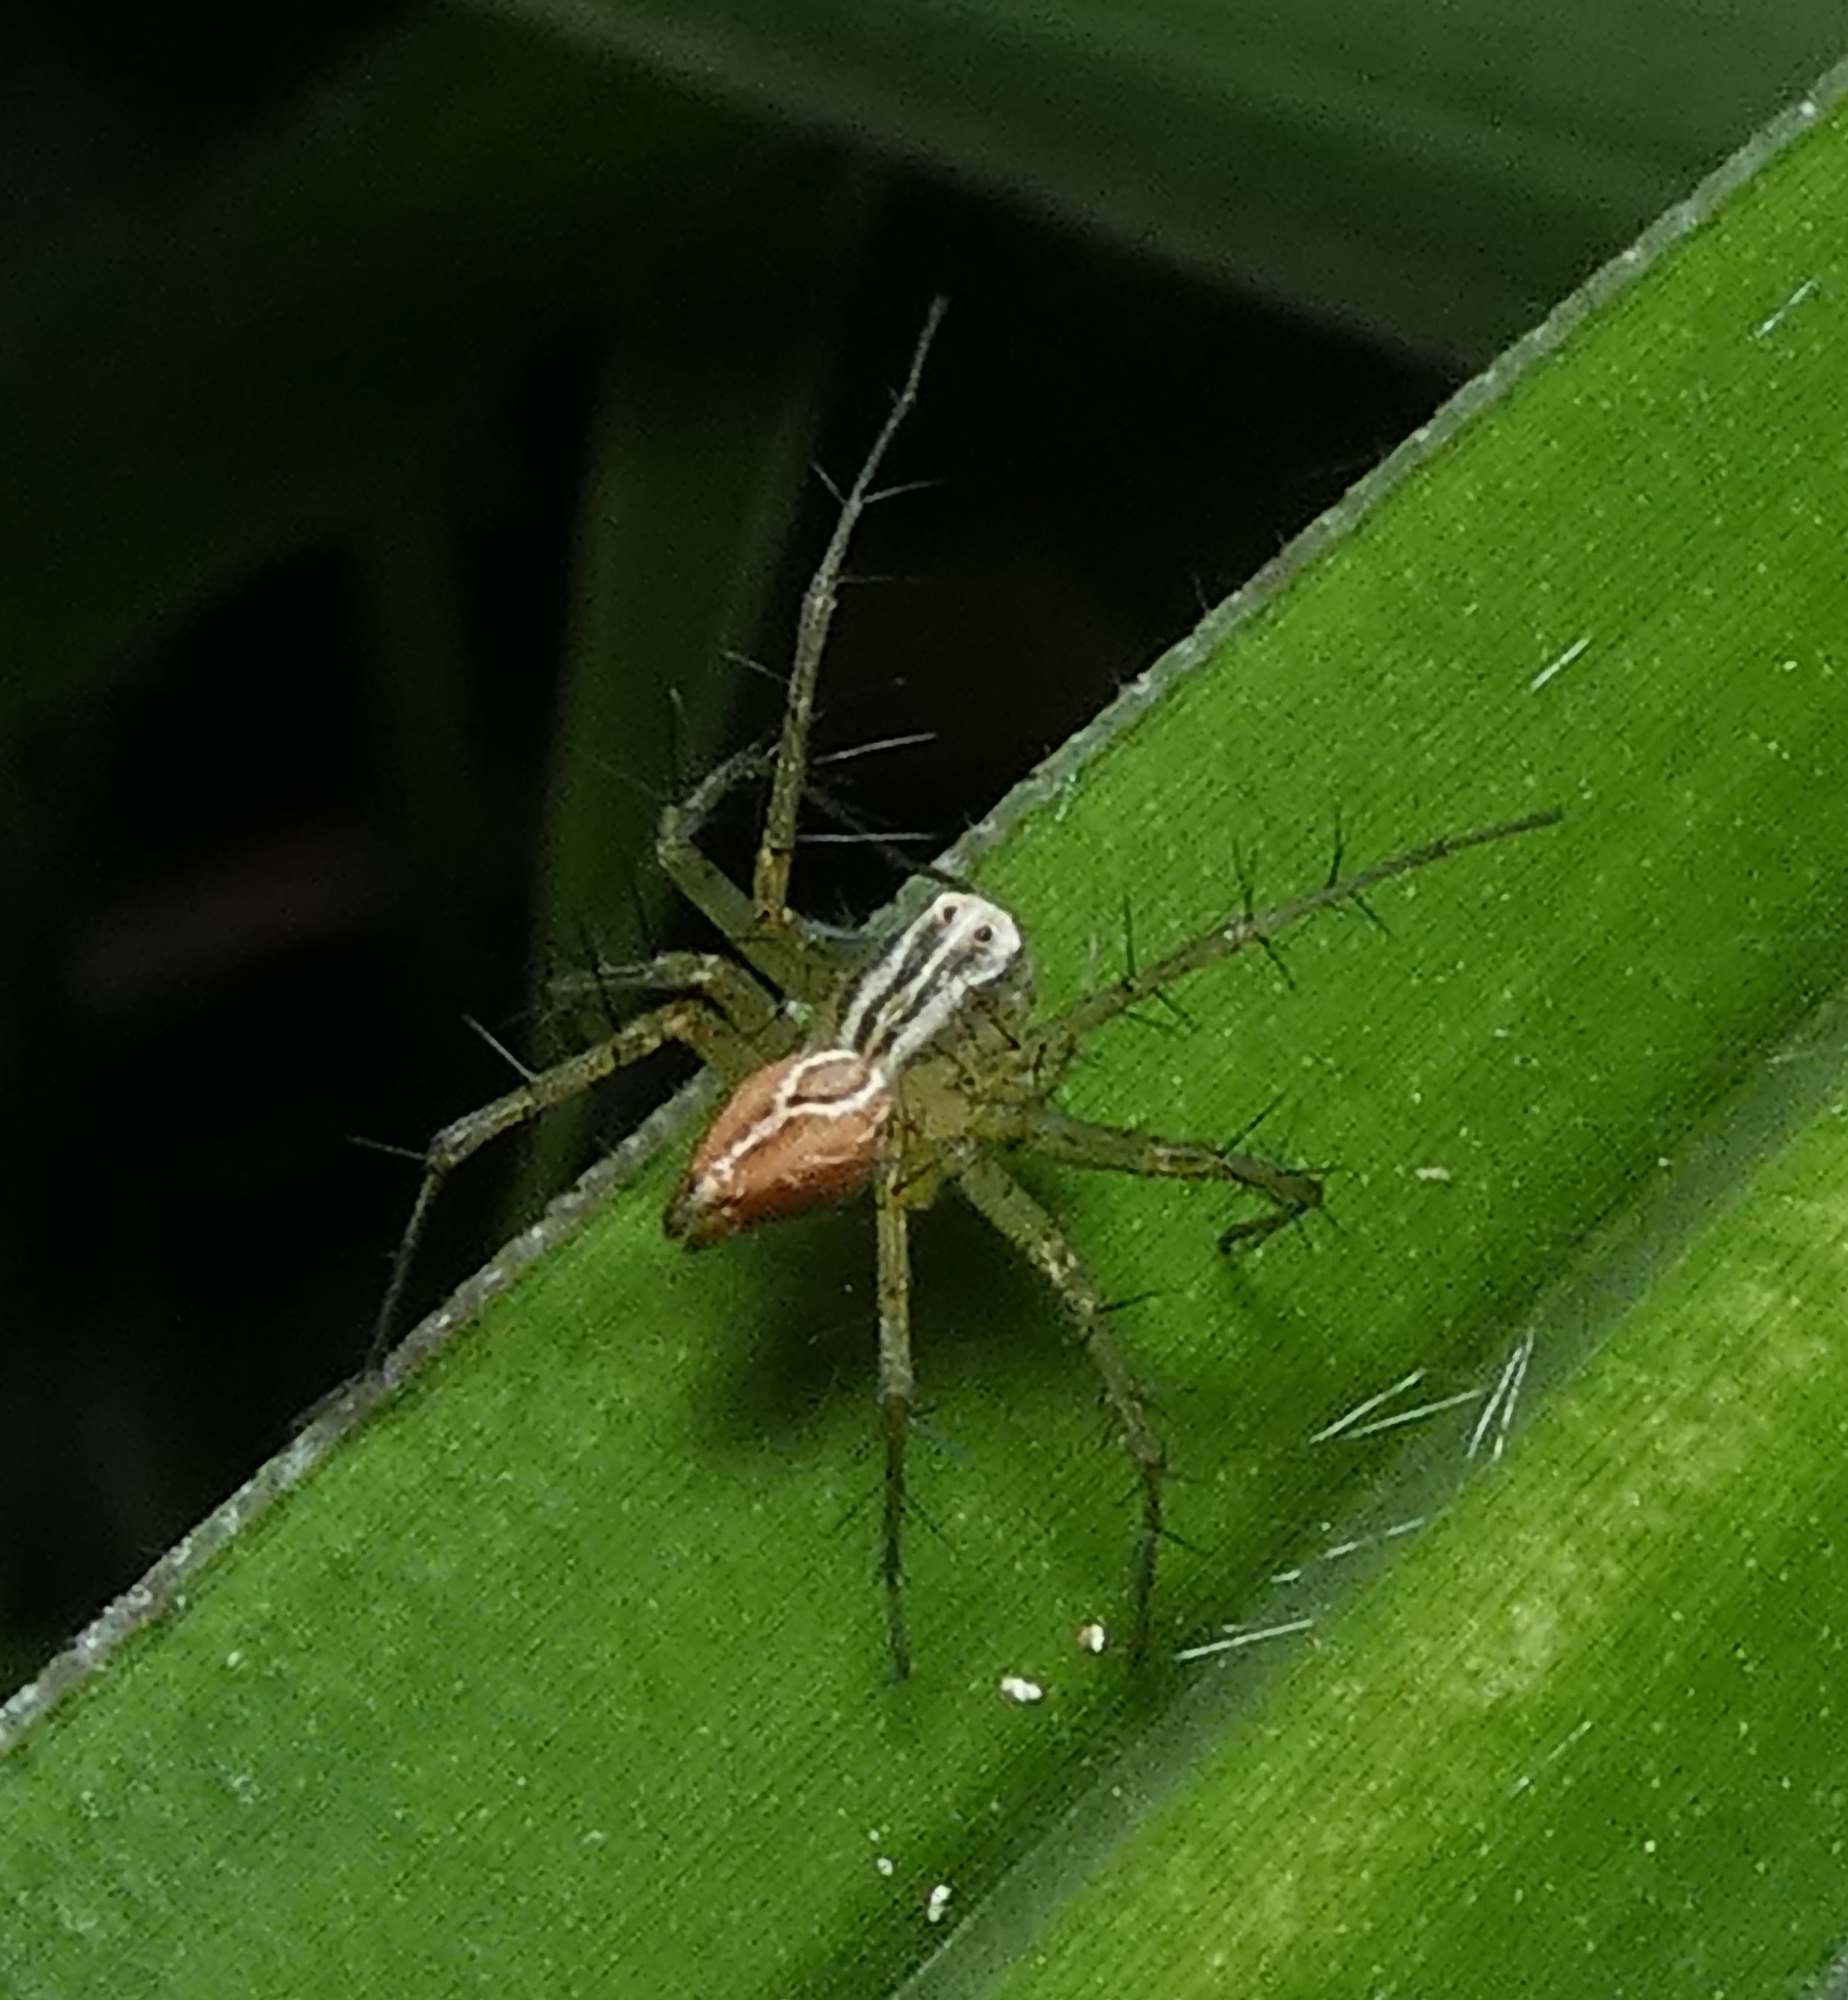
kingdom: Animalia
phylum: Arthropoda
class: Arachnida
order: Araneae
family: Oxyopidae
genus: Oxyopes
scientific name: Oxyopes salticus
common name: Lynx spiders
